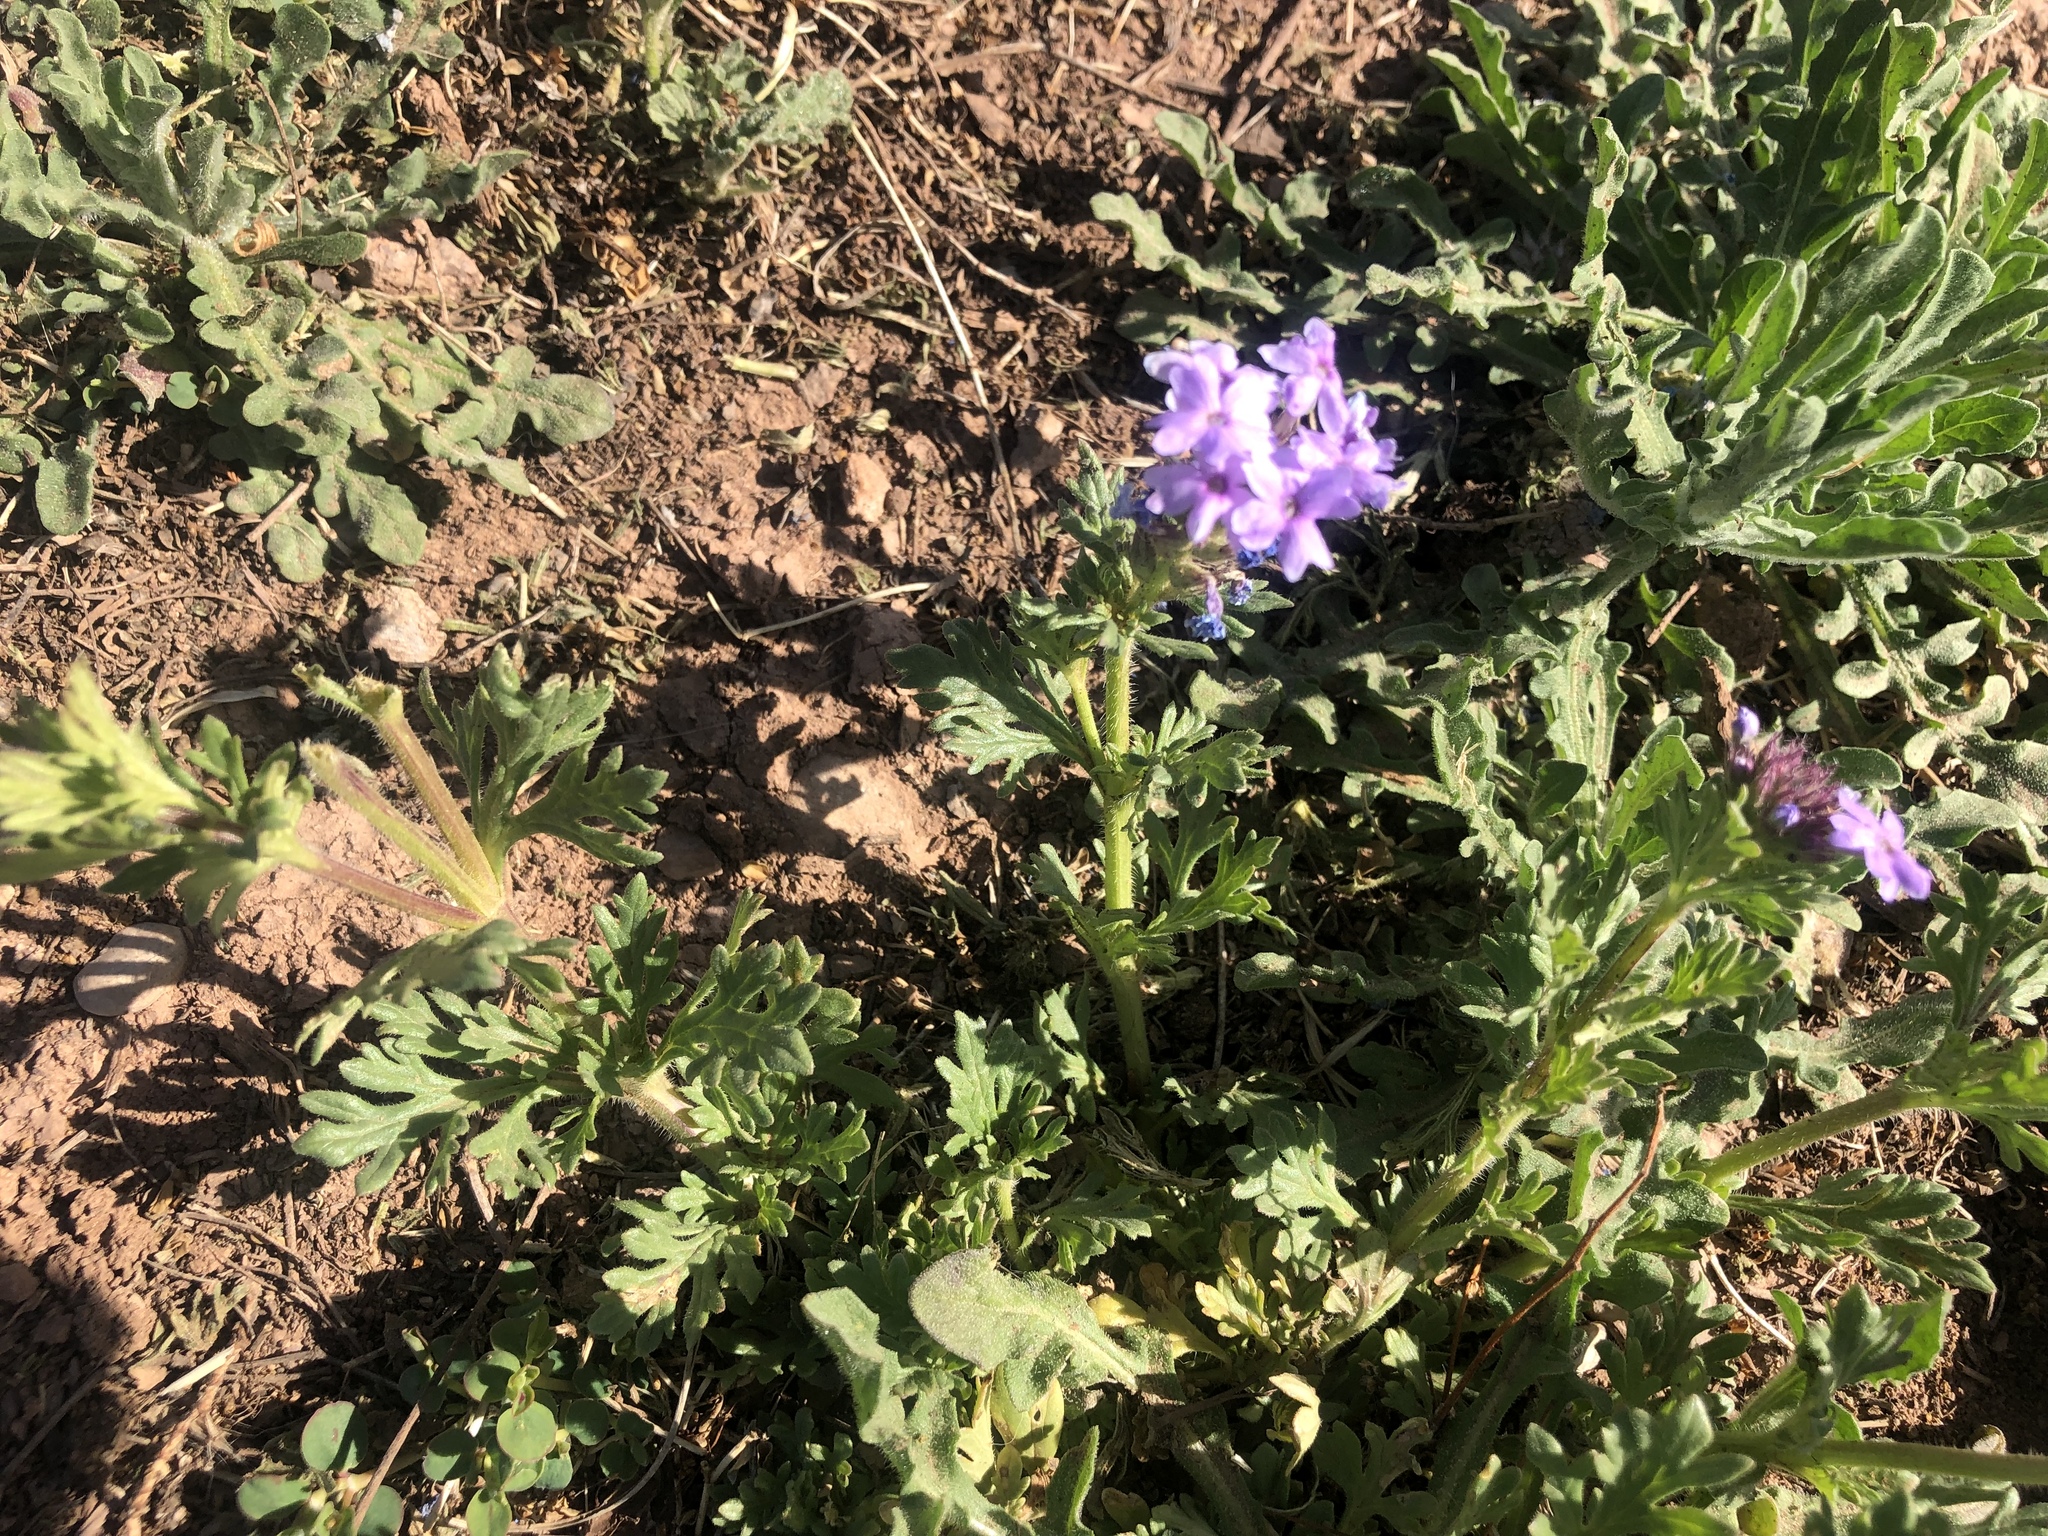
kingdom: Plantae
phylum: Tracheophyta
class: Magnoliopsida
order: Lamiales
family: Verbenaceae
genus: Verbena
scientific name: Verbena bipinnatifida
